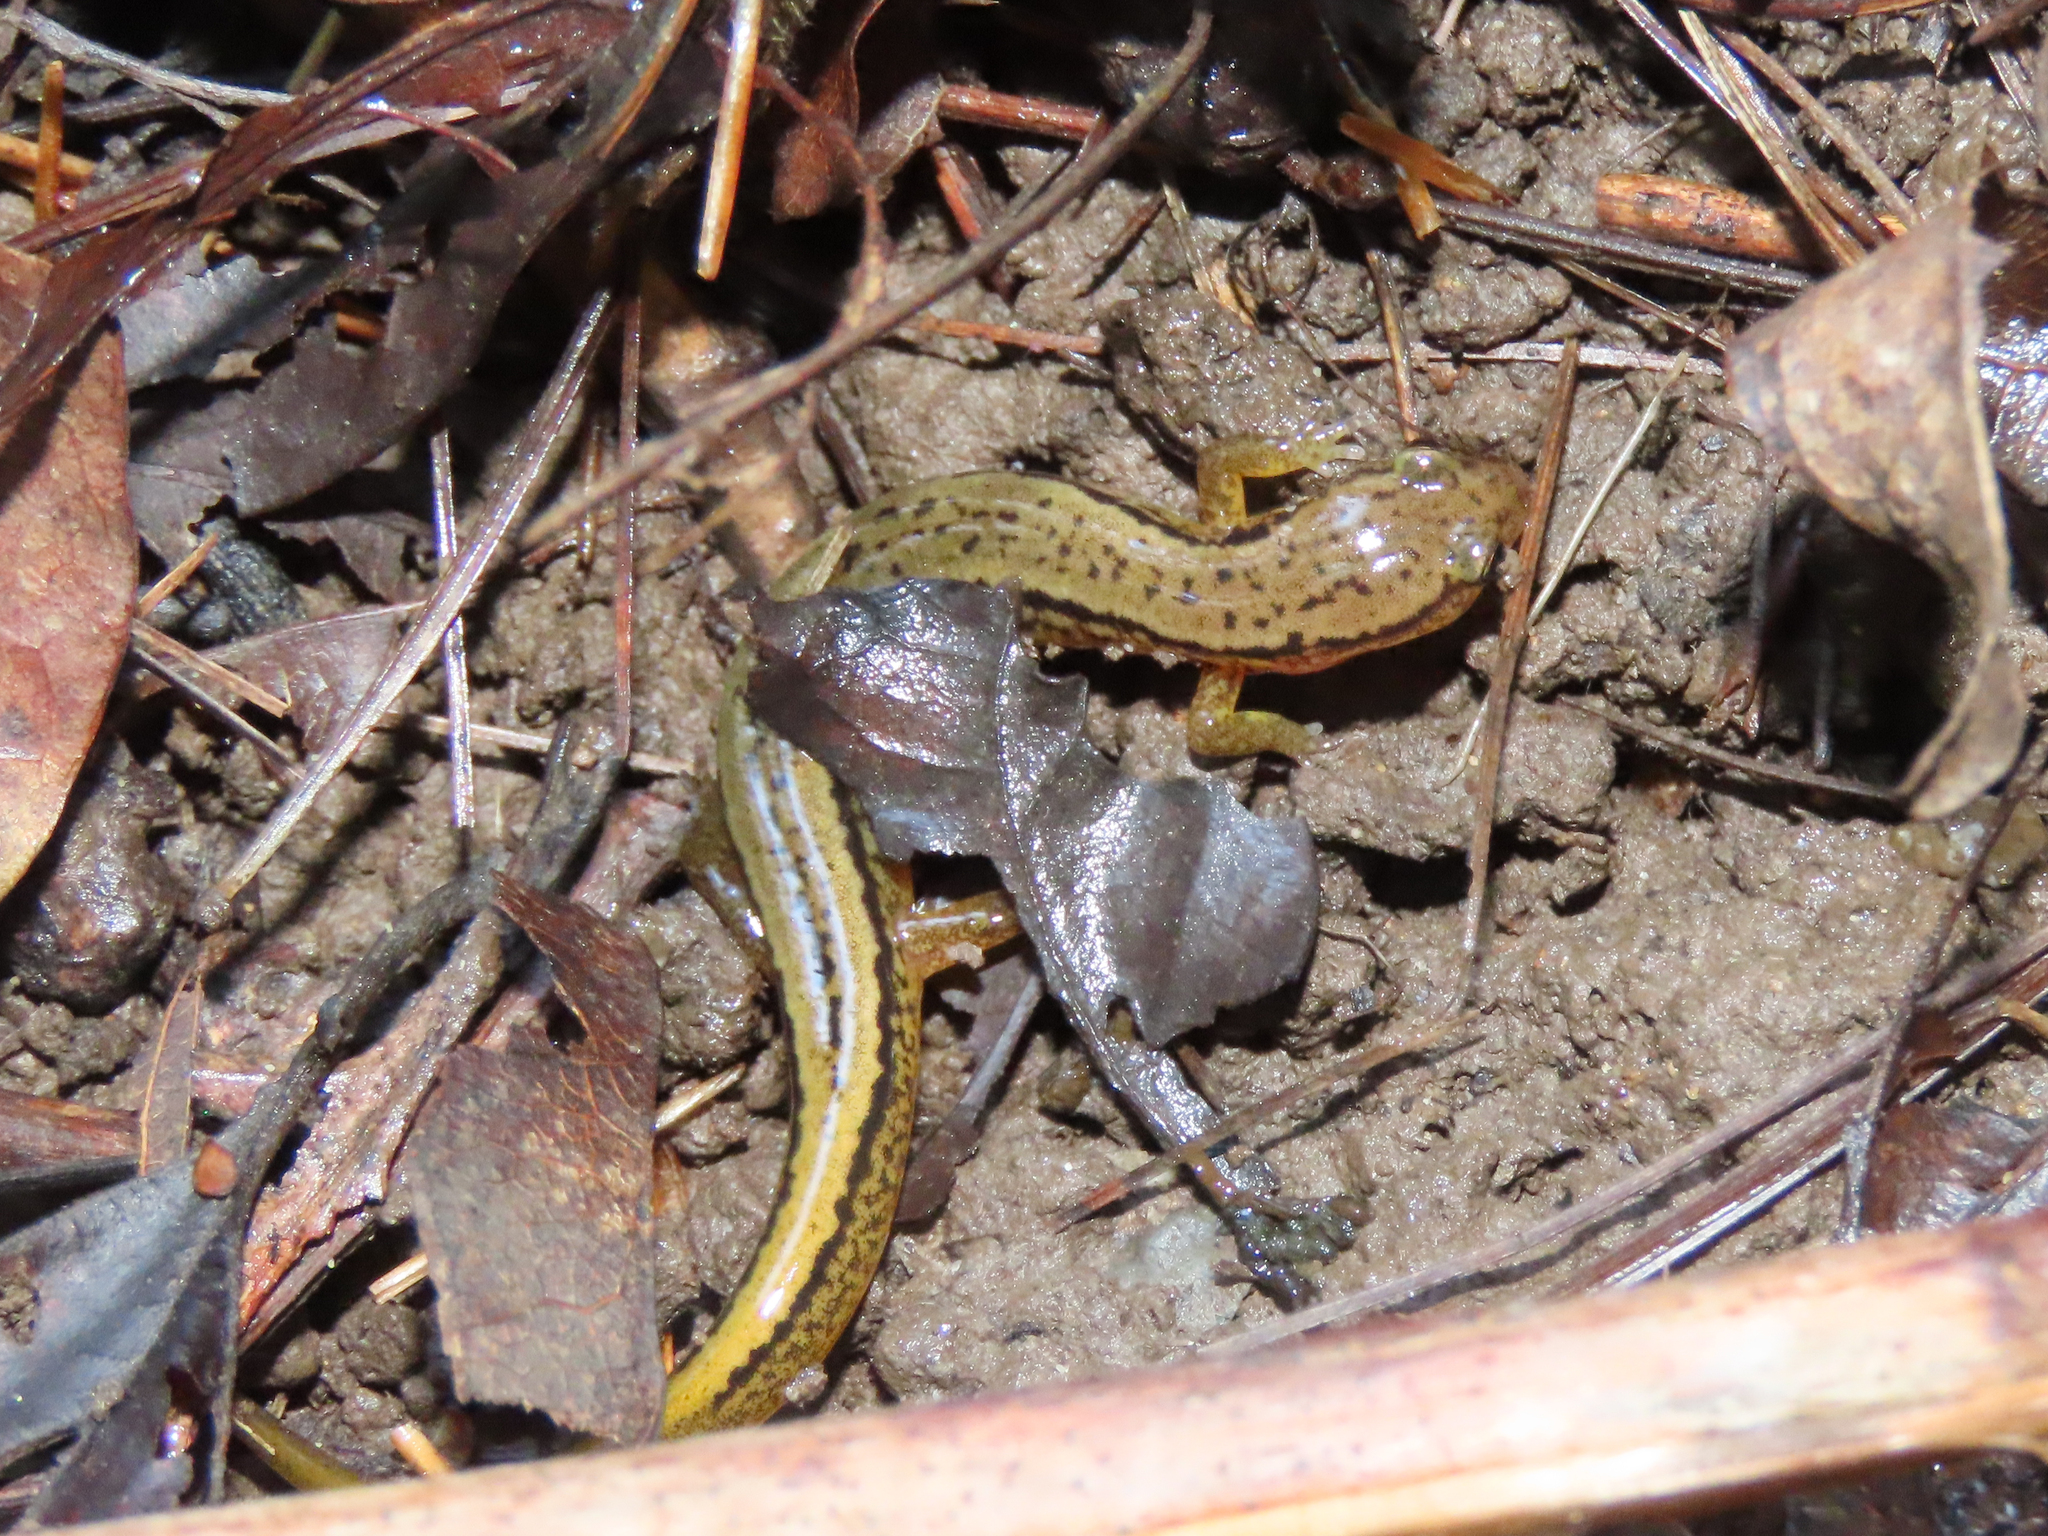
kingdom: Animalia
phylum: Chordata
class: Amphibia
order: Caudata
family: Plethodontidae
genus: Eurycea
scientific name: Eurycea bislineata
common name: Northern two-lined salamander
